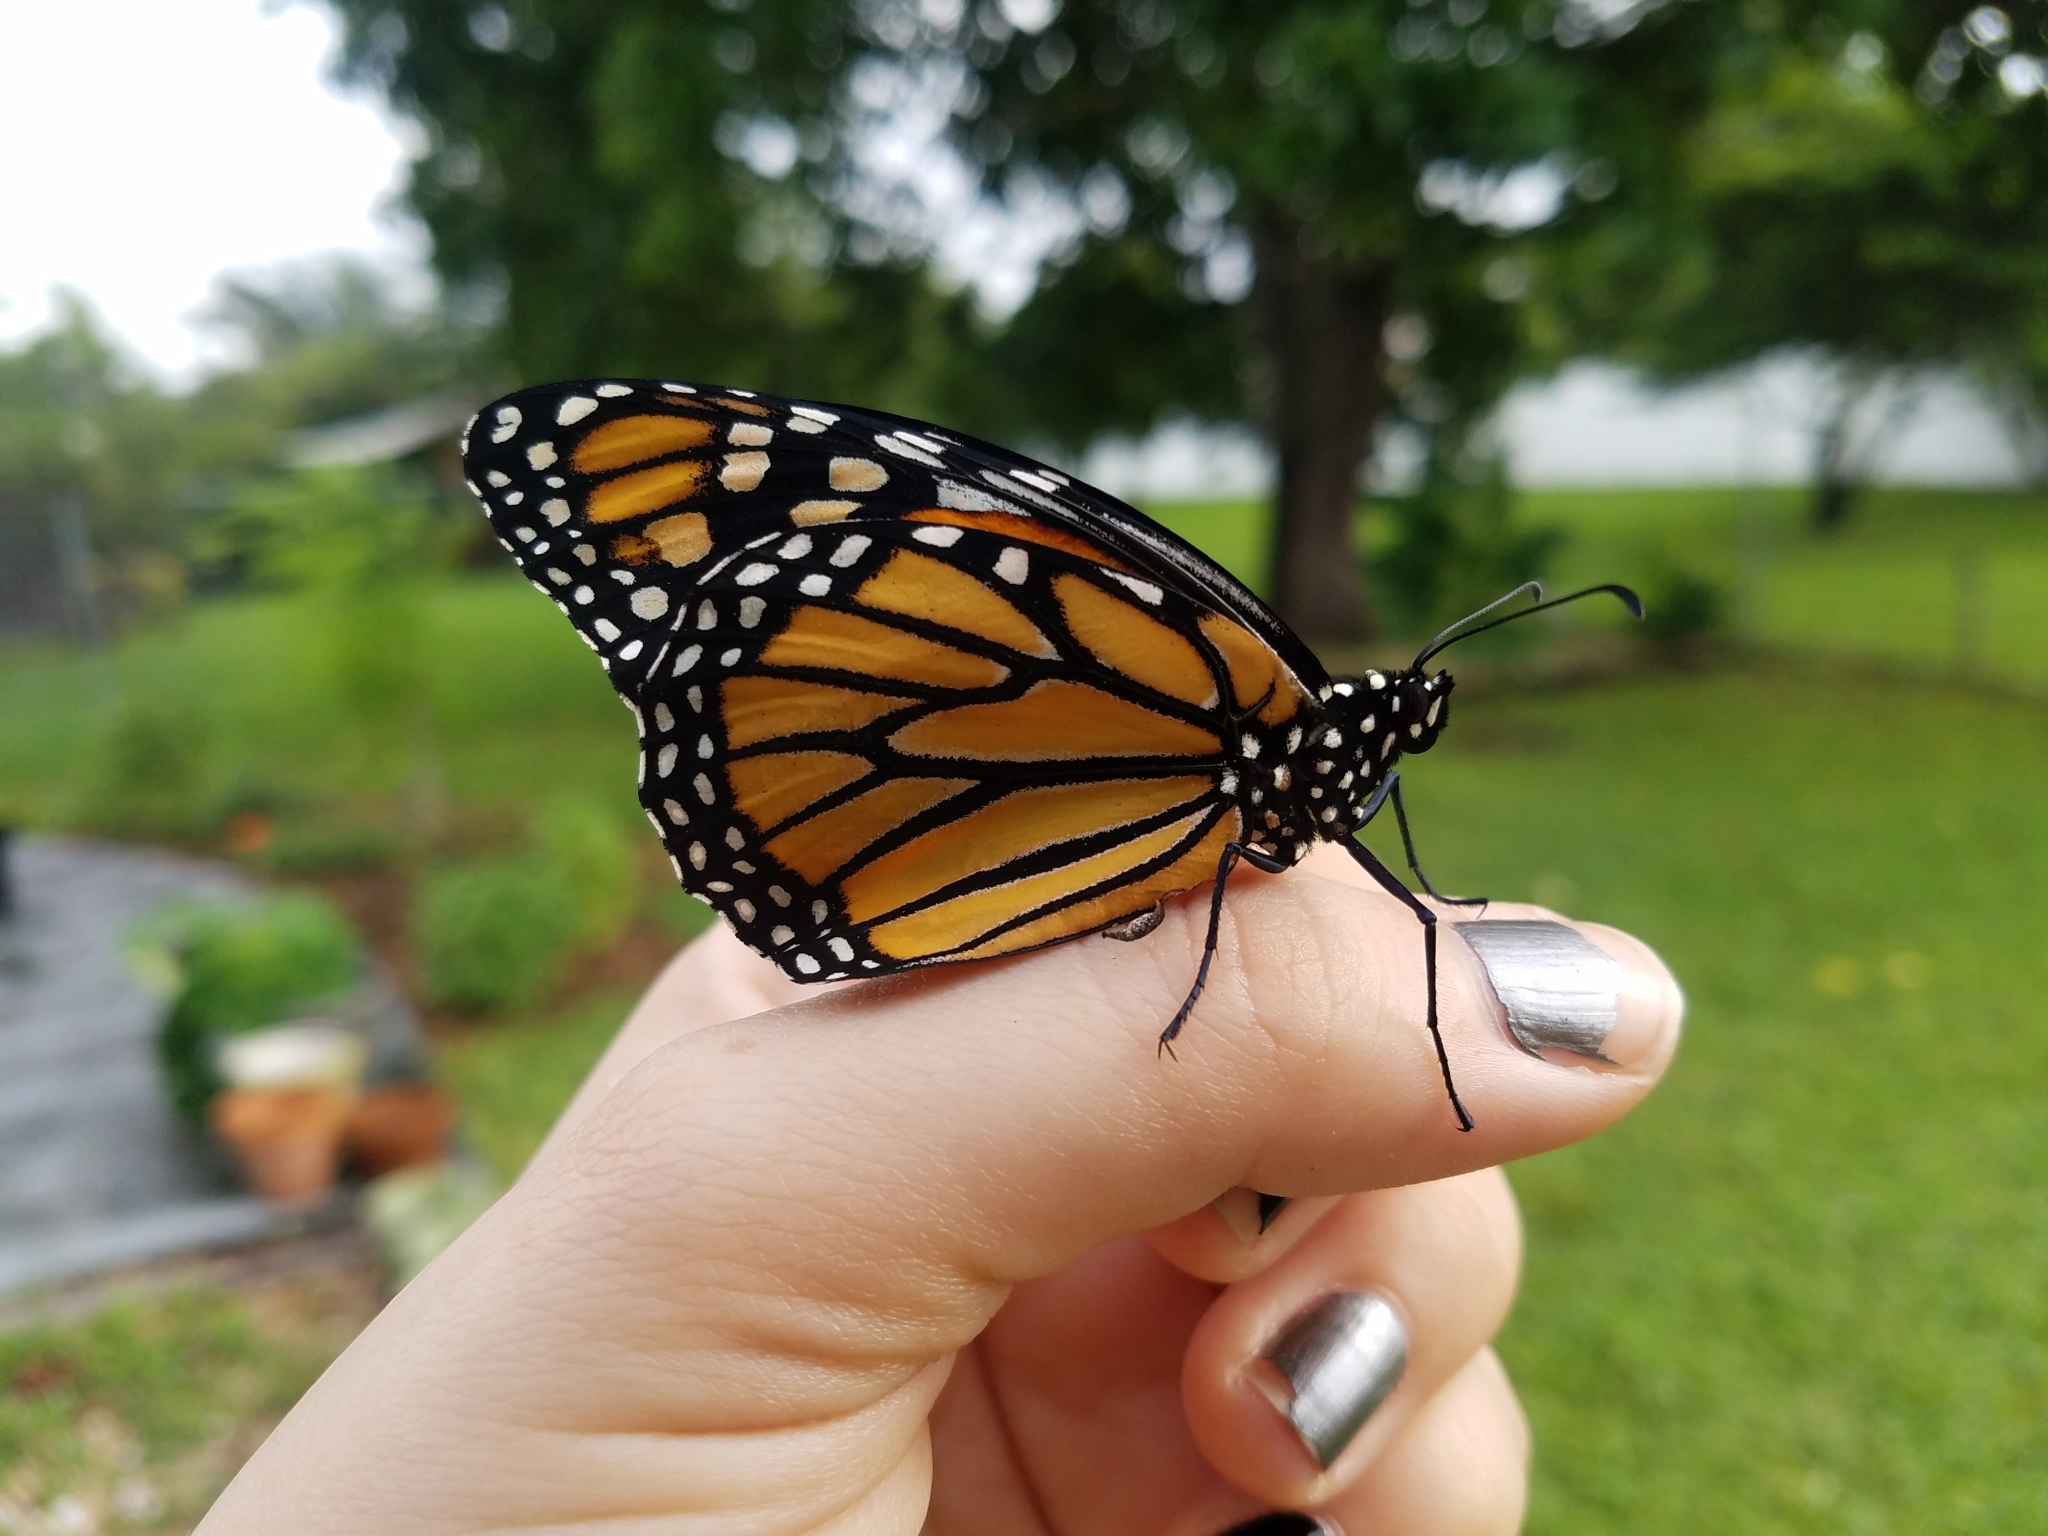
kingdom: Animalia
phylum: Arthropoda
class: Insecta
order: Lepidoptera
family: Nymphalidae
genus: Danaus
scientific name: Danaus plexippus
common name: Monarch
